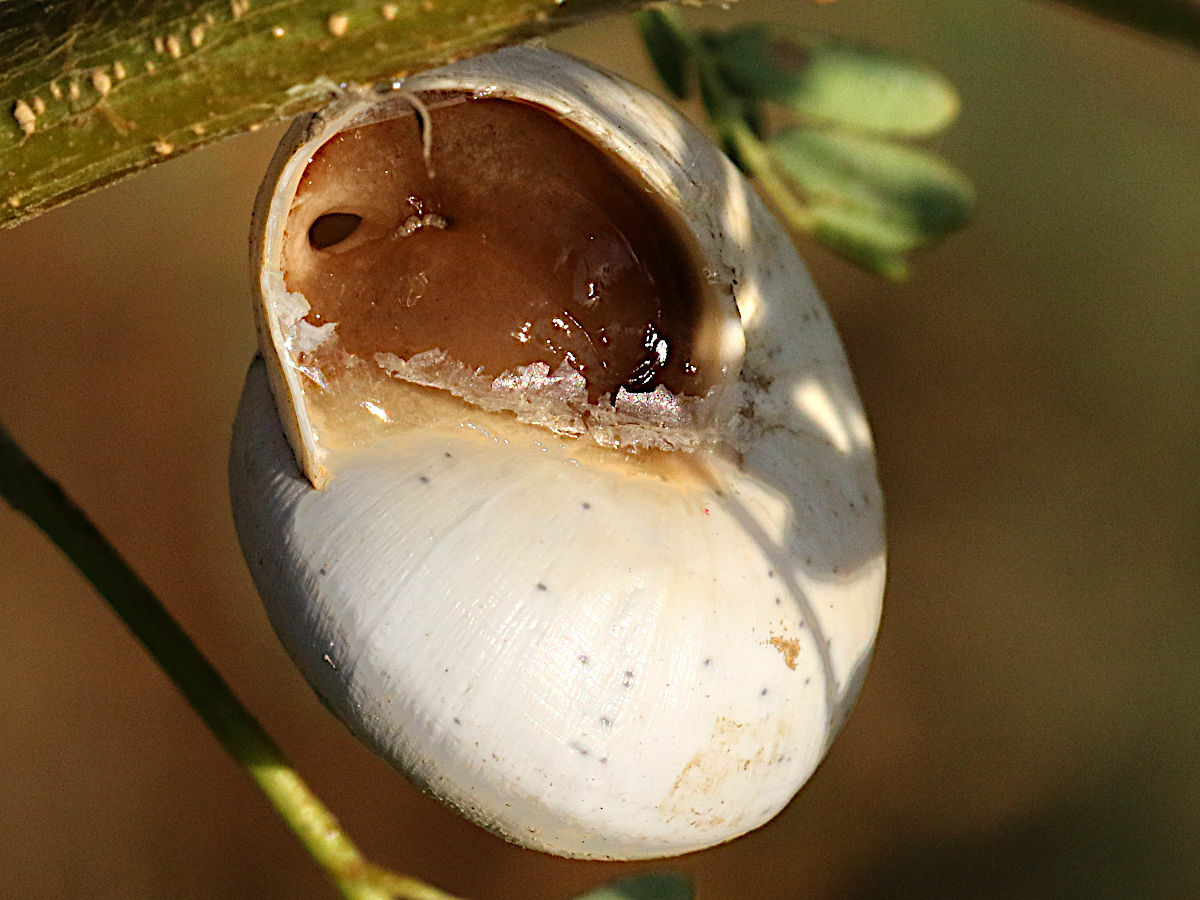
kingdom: Animalia
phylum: Mollusca
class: Gastropoda
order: Stylommatophora
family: Helicidae
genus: Theba
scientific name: Theba pisana
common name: White snail
